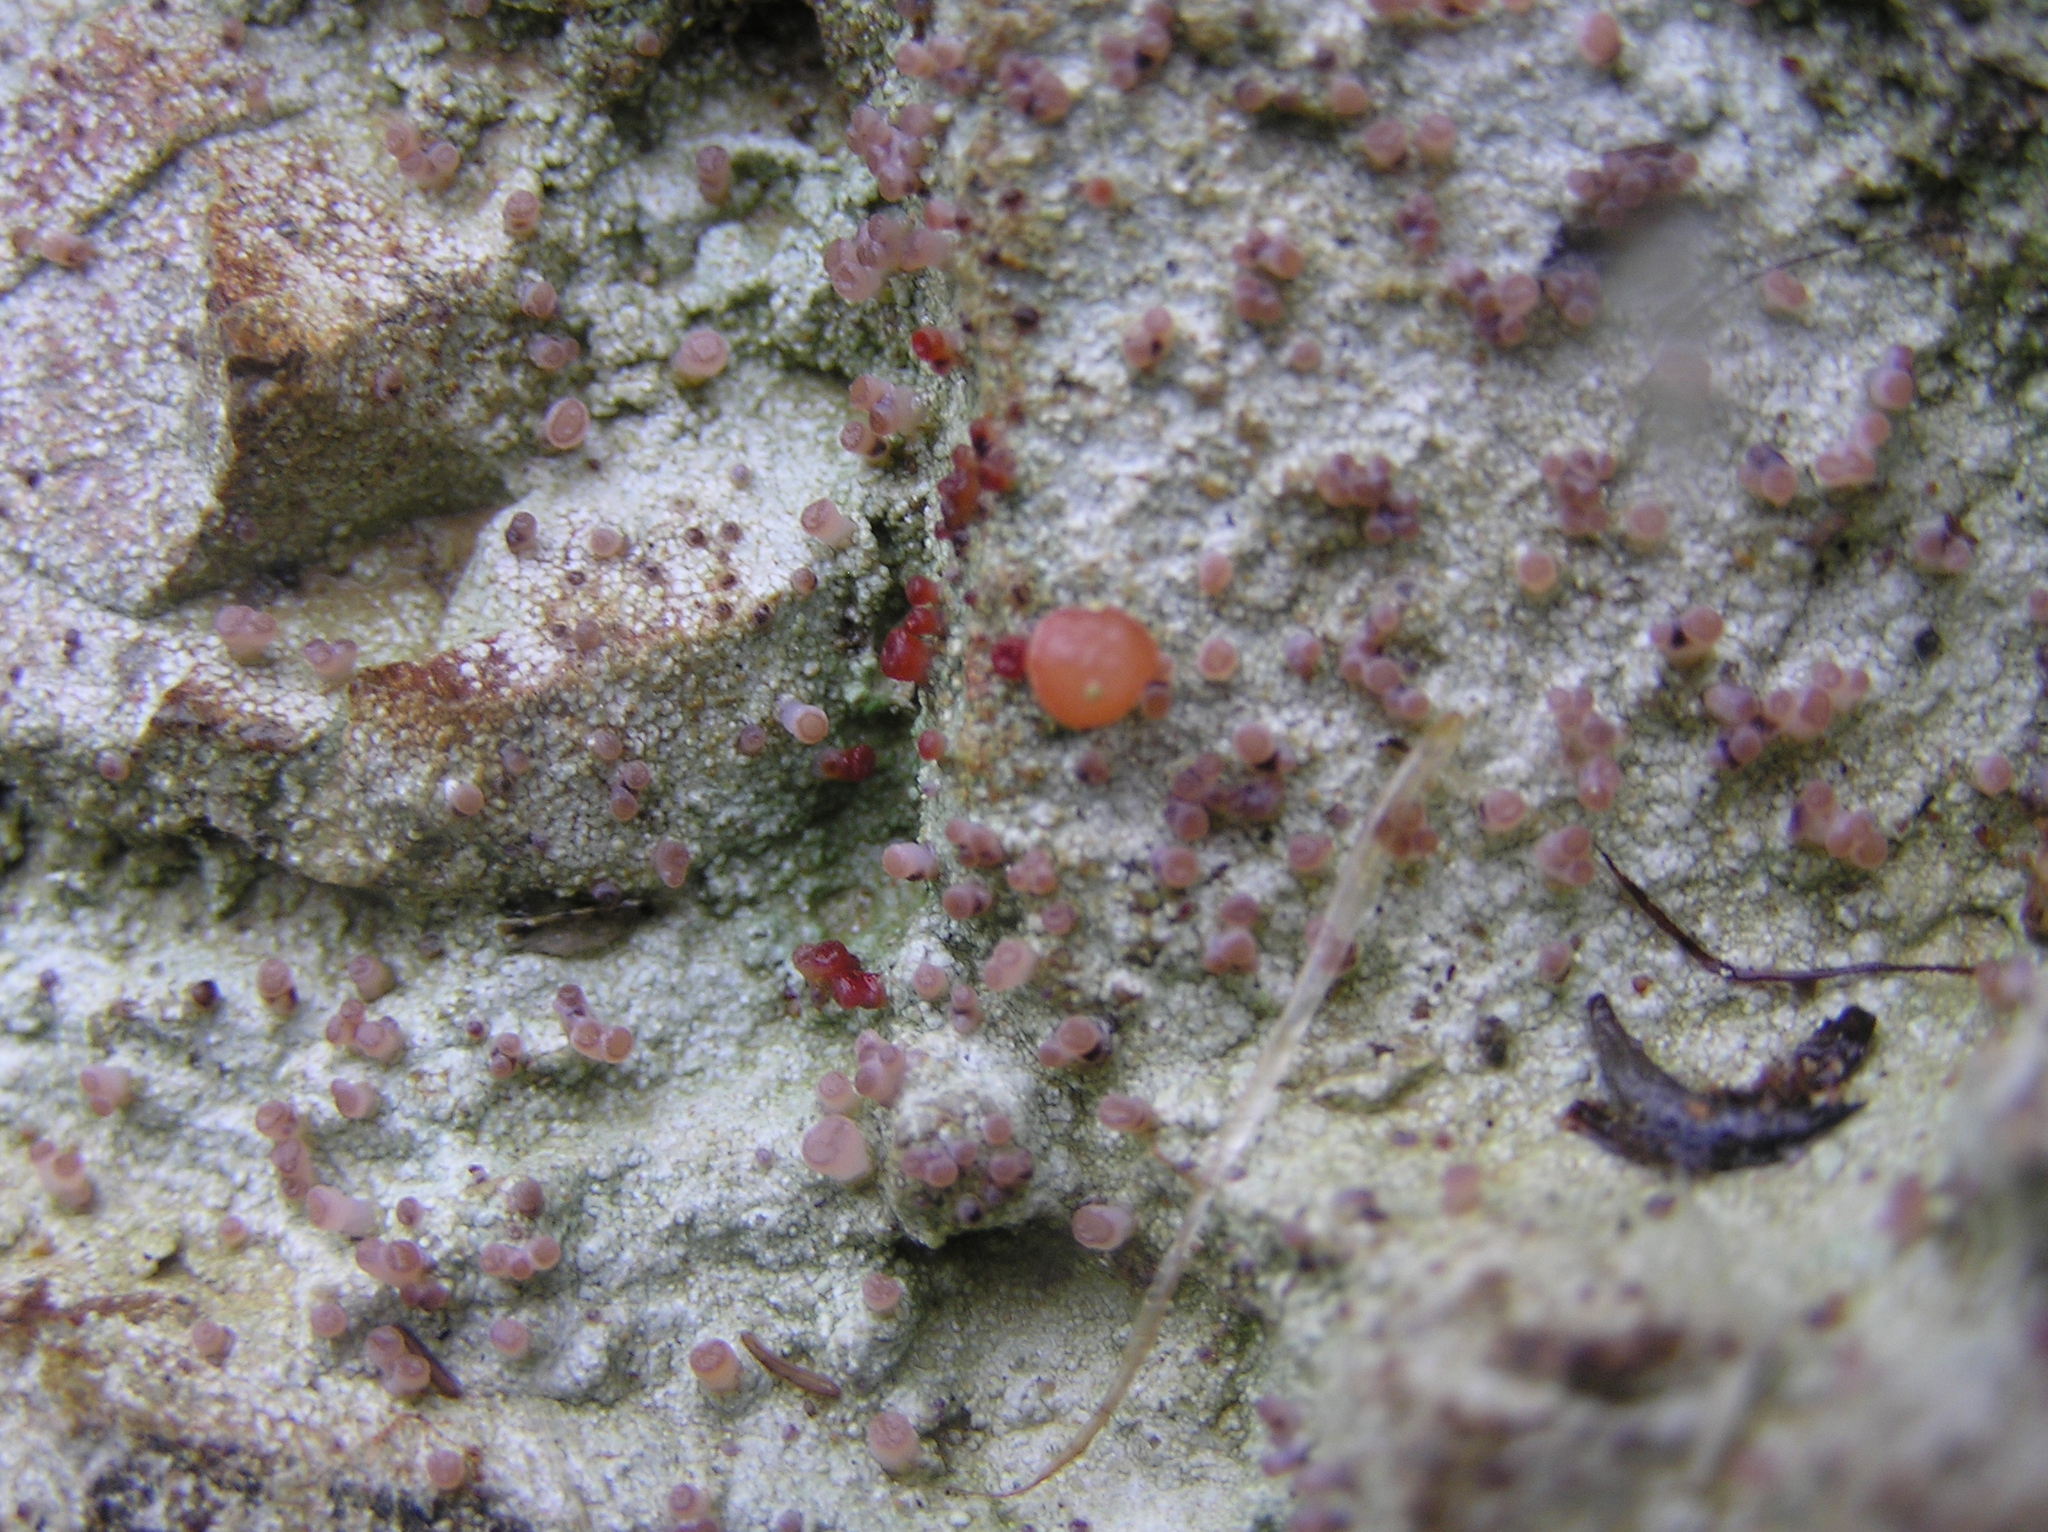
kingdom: Fungi
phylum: Ascomycota
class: Lecanoromycetes
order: Baeomycetales
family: Baeomycetaceae
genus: Baeomyces
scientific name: Baeomyces heteromorphus
